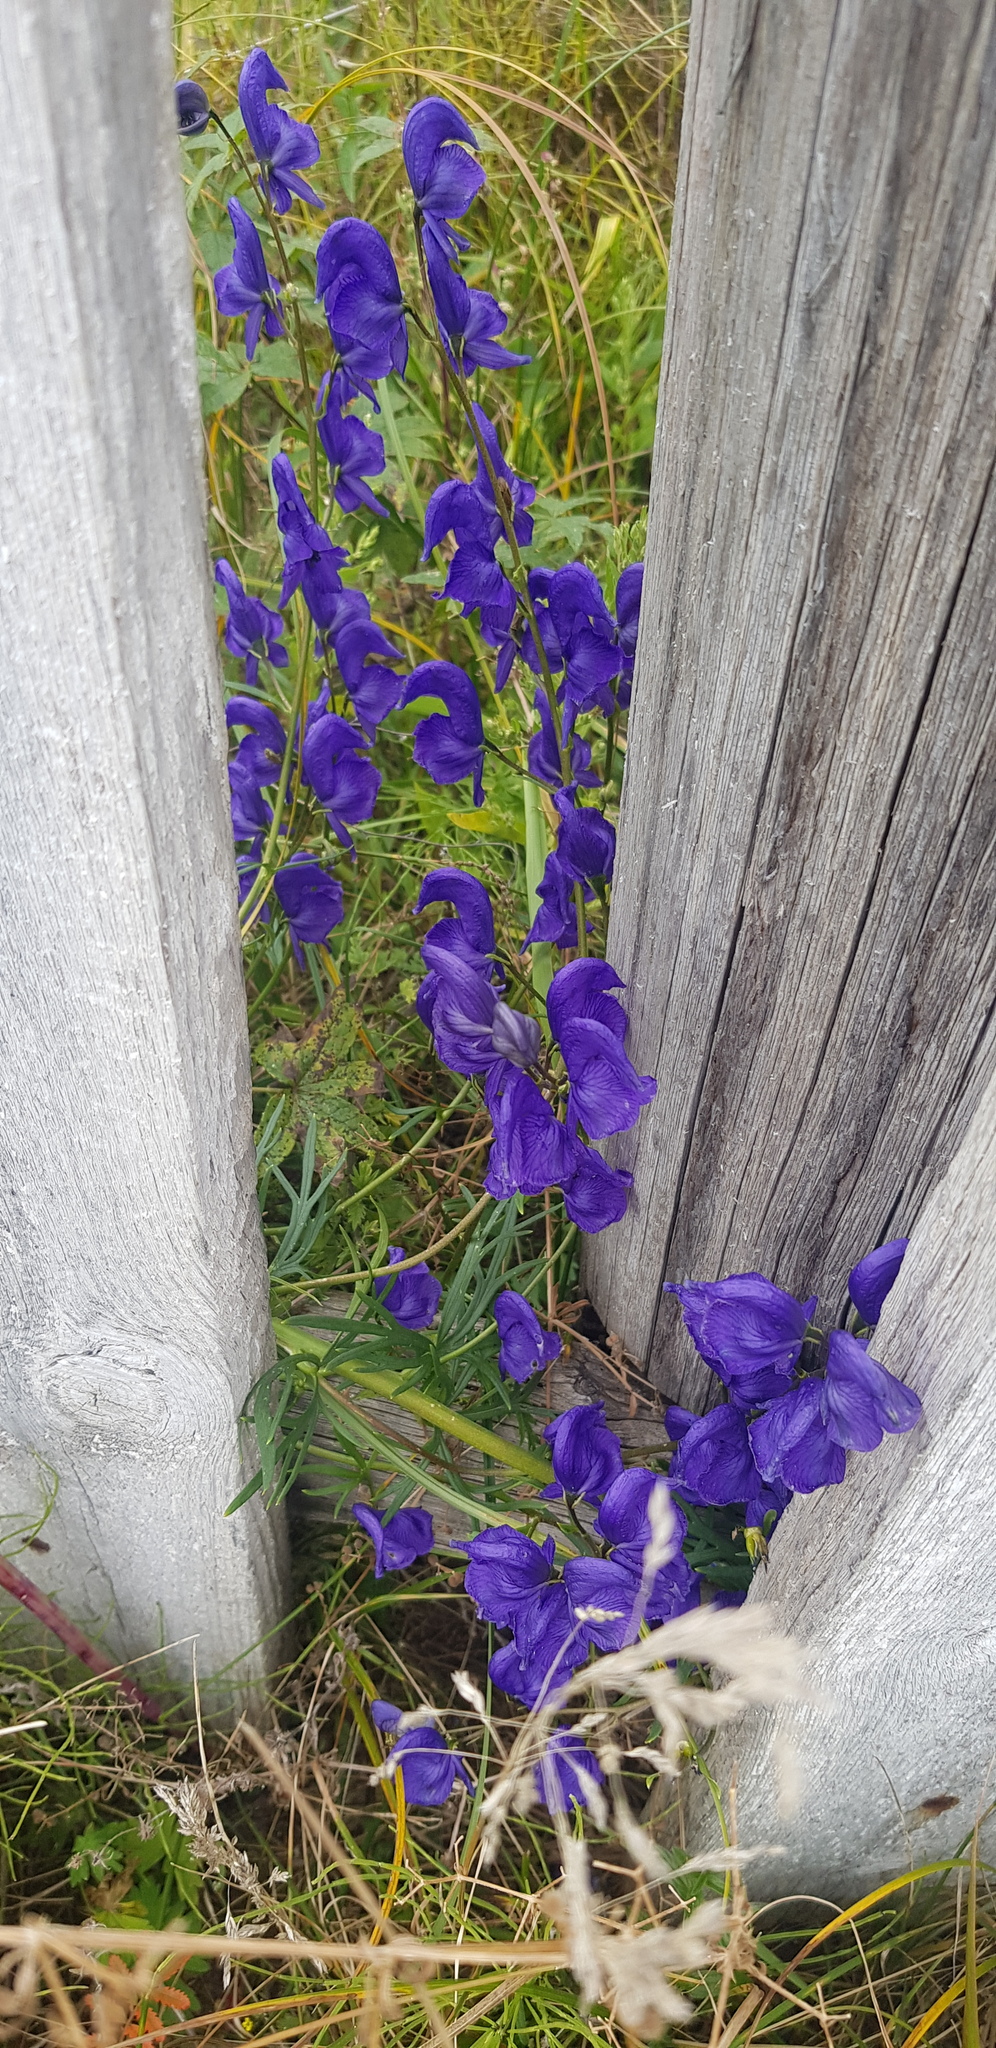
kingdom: Plantae
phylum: Tracheophyta
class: Magnoliopsida
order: Ranunculales
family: Ranunculaceae
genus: Aconitum
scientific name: Aconitum baicalense
